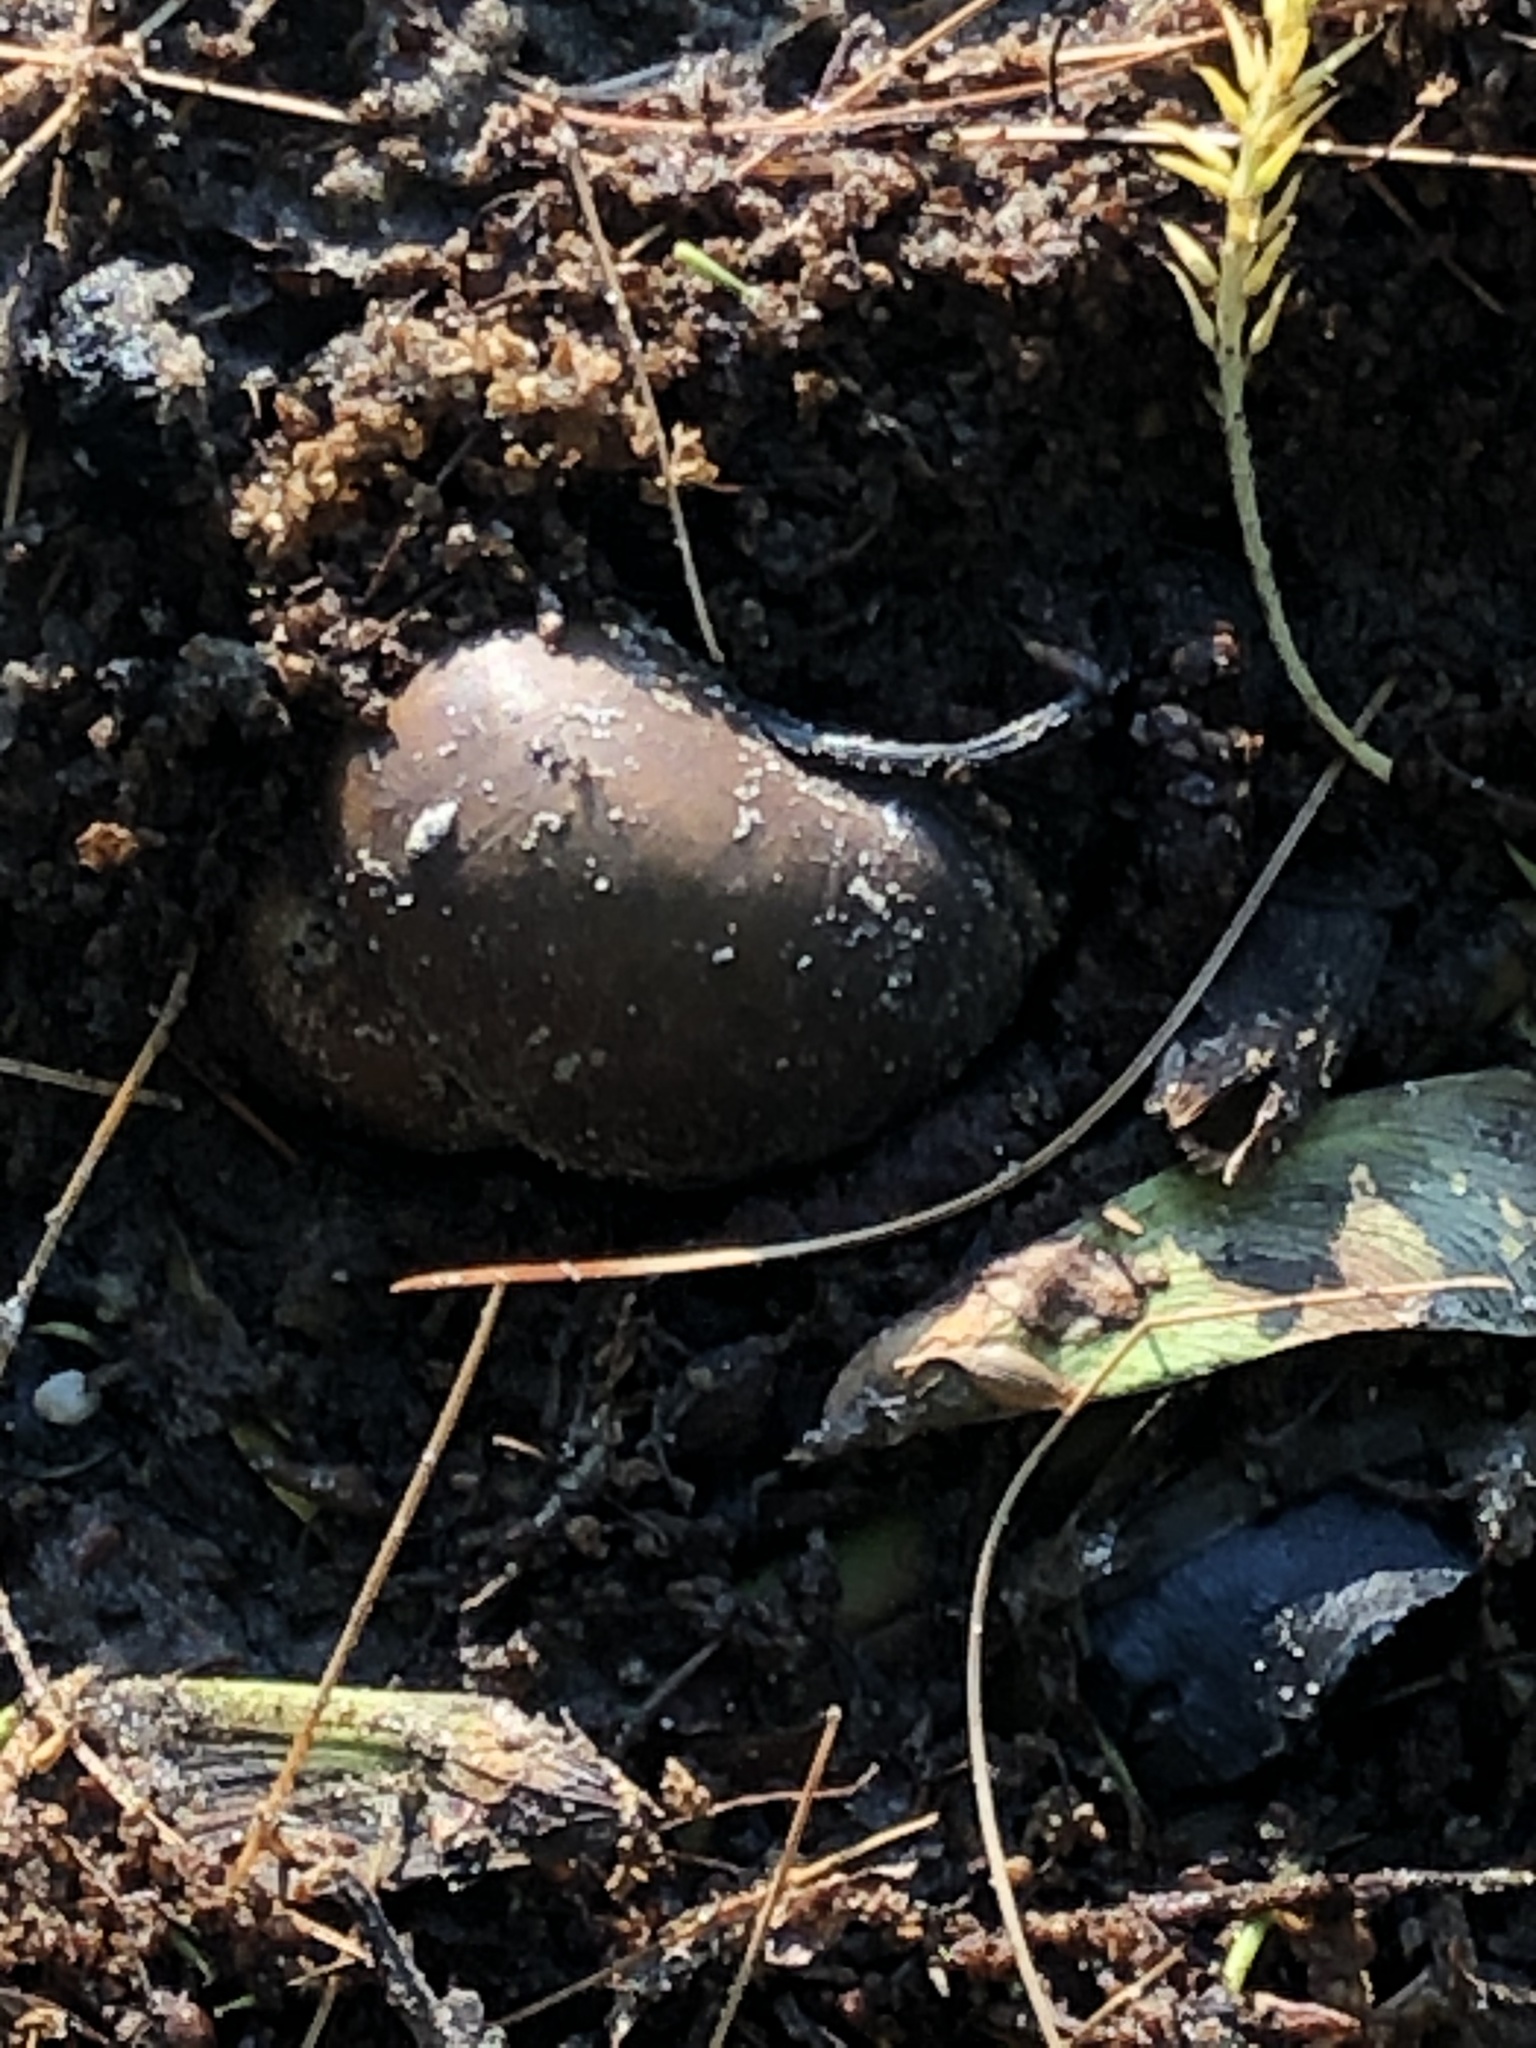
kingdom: Animalia
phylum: Mollusca
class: Gastropoda
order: Architaenioglossa
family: Viviparidae
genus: Cipangopaludina
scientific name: Cipangopaludina chinensis
